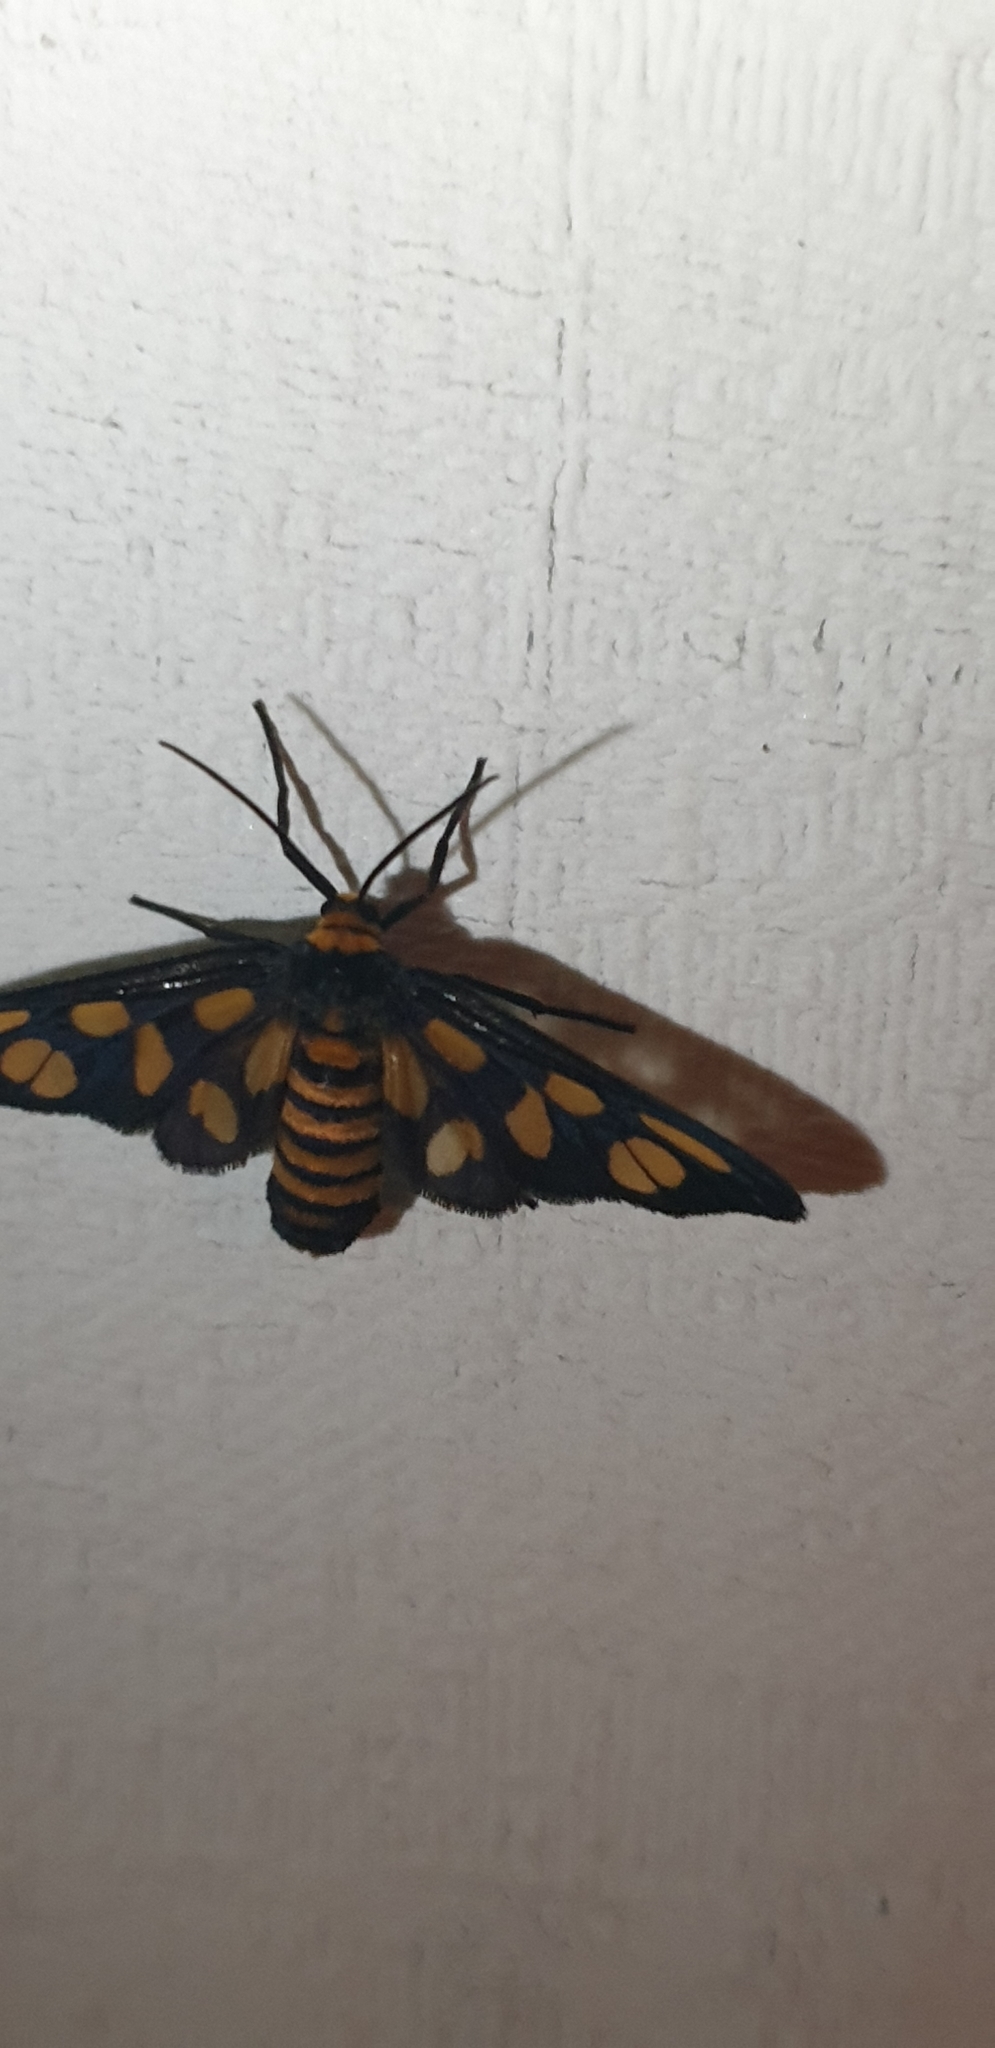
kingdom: Animalia
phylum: Arthropoda
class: Insecta
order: Lepidoptera
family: Erebidae
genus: Amata
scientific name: Amata nigriceps
